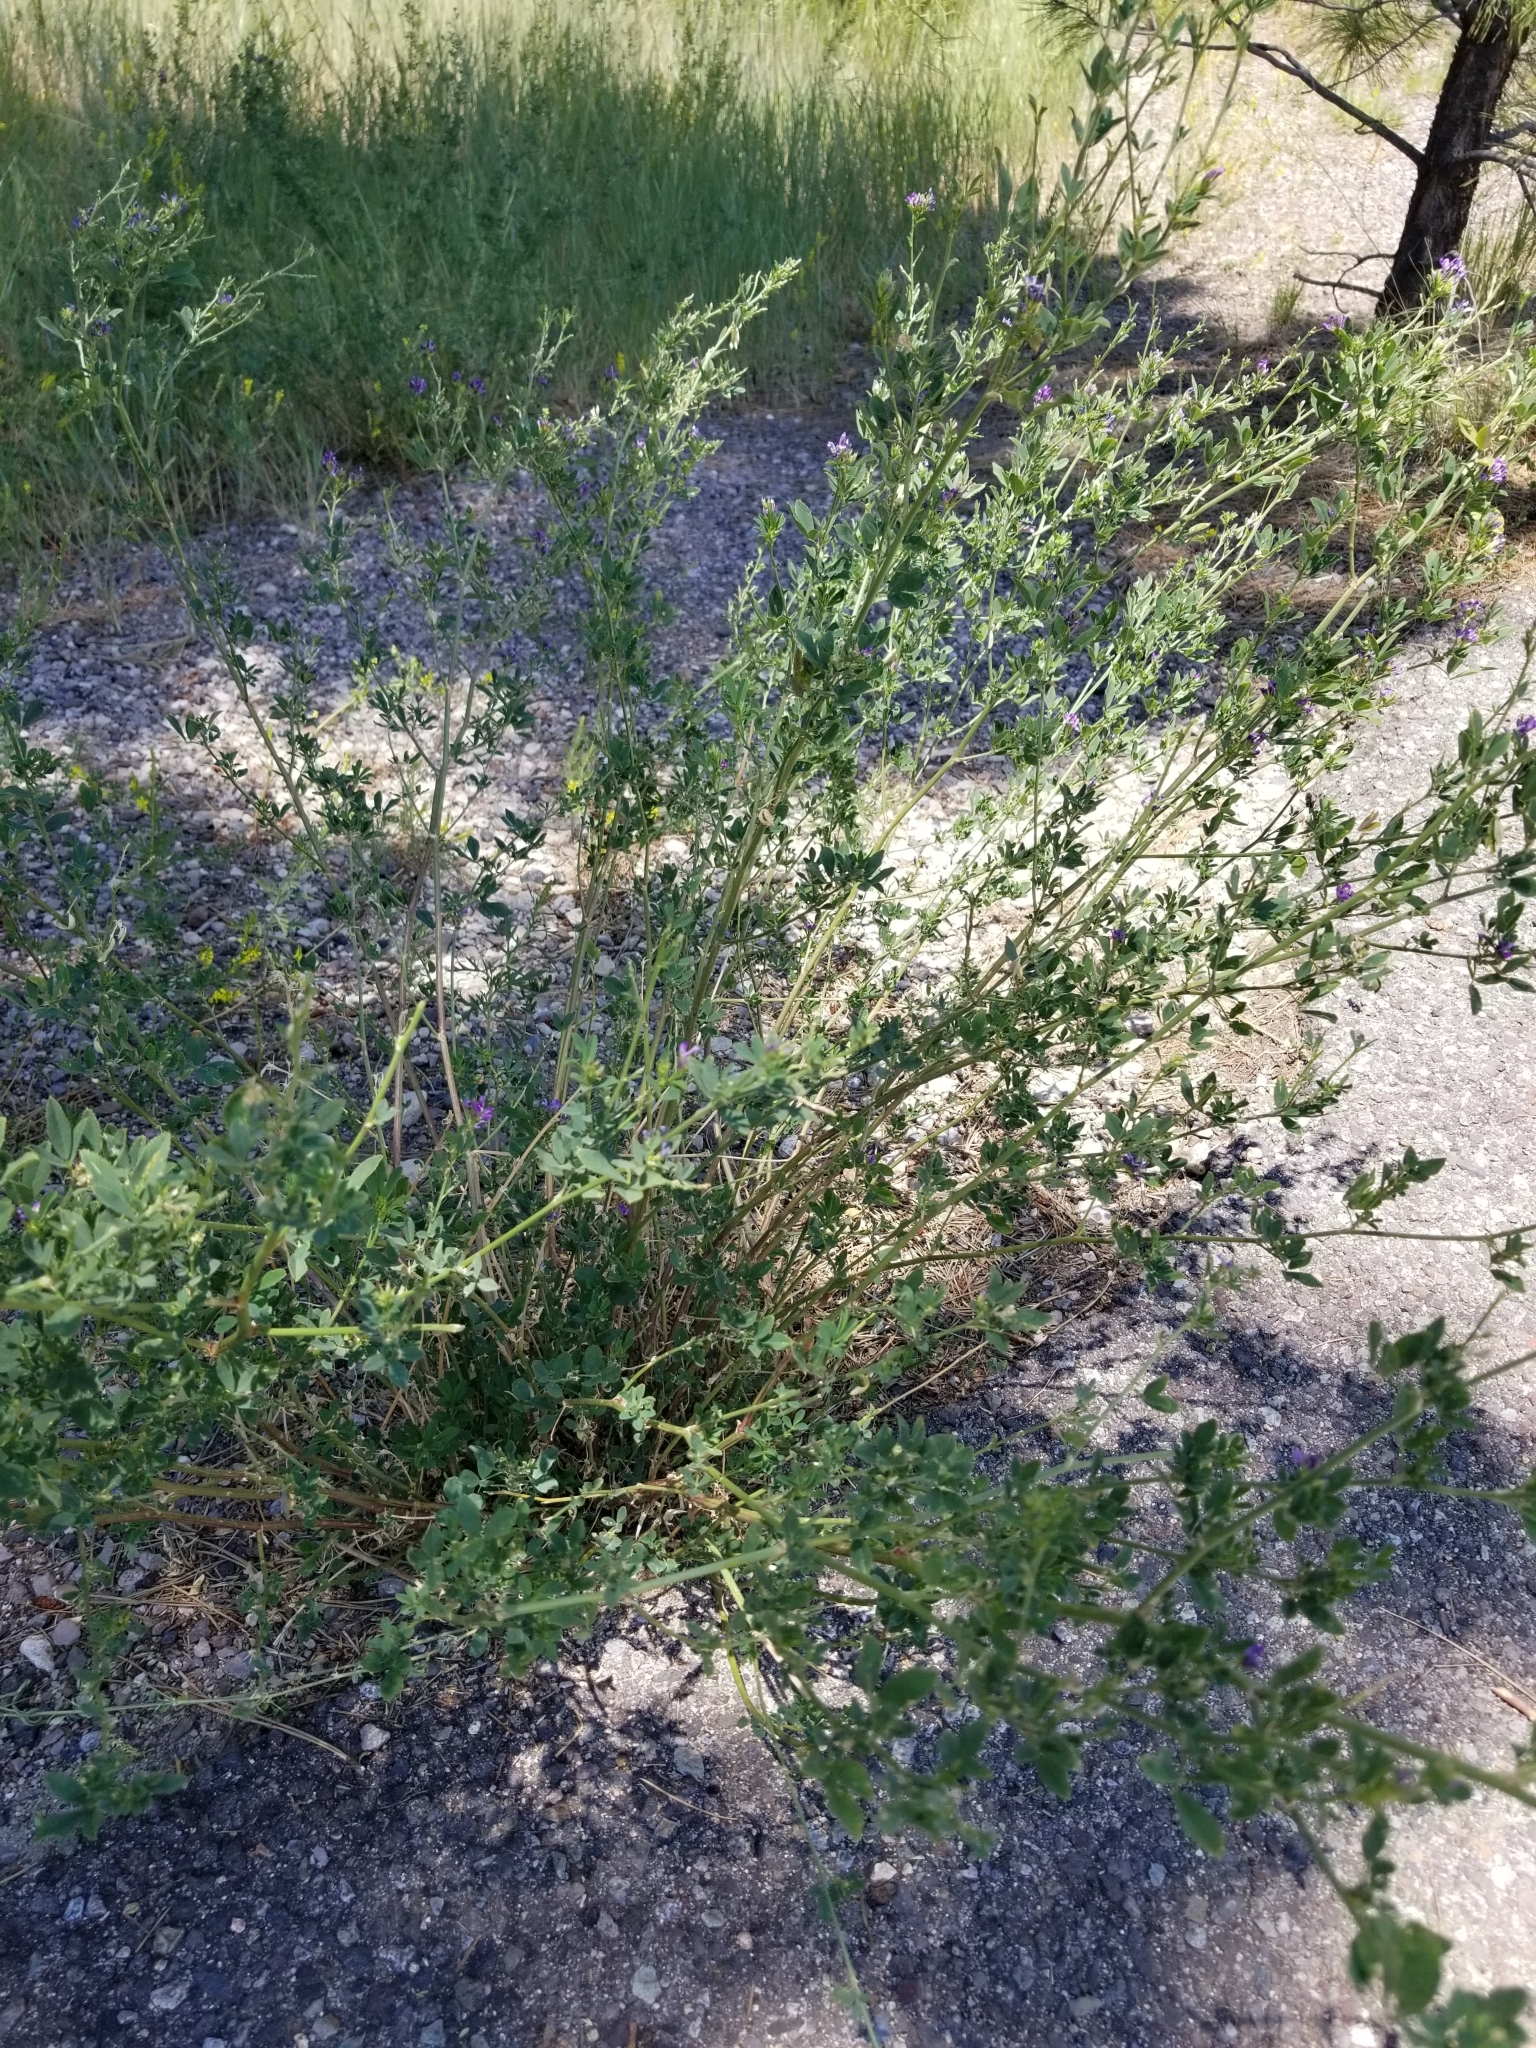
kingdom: Plantae
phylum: Tracheophyta
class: Magnoliopsida
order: Fabales
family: Fabaceae
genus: Medicago
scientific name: Medicago sativa
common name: Alfalfa
